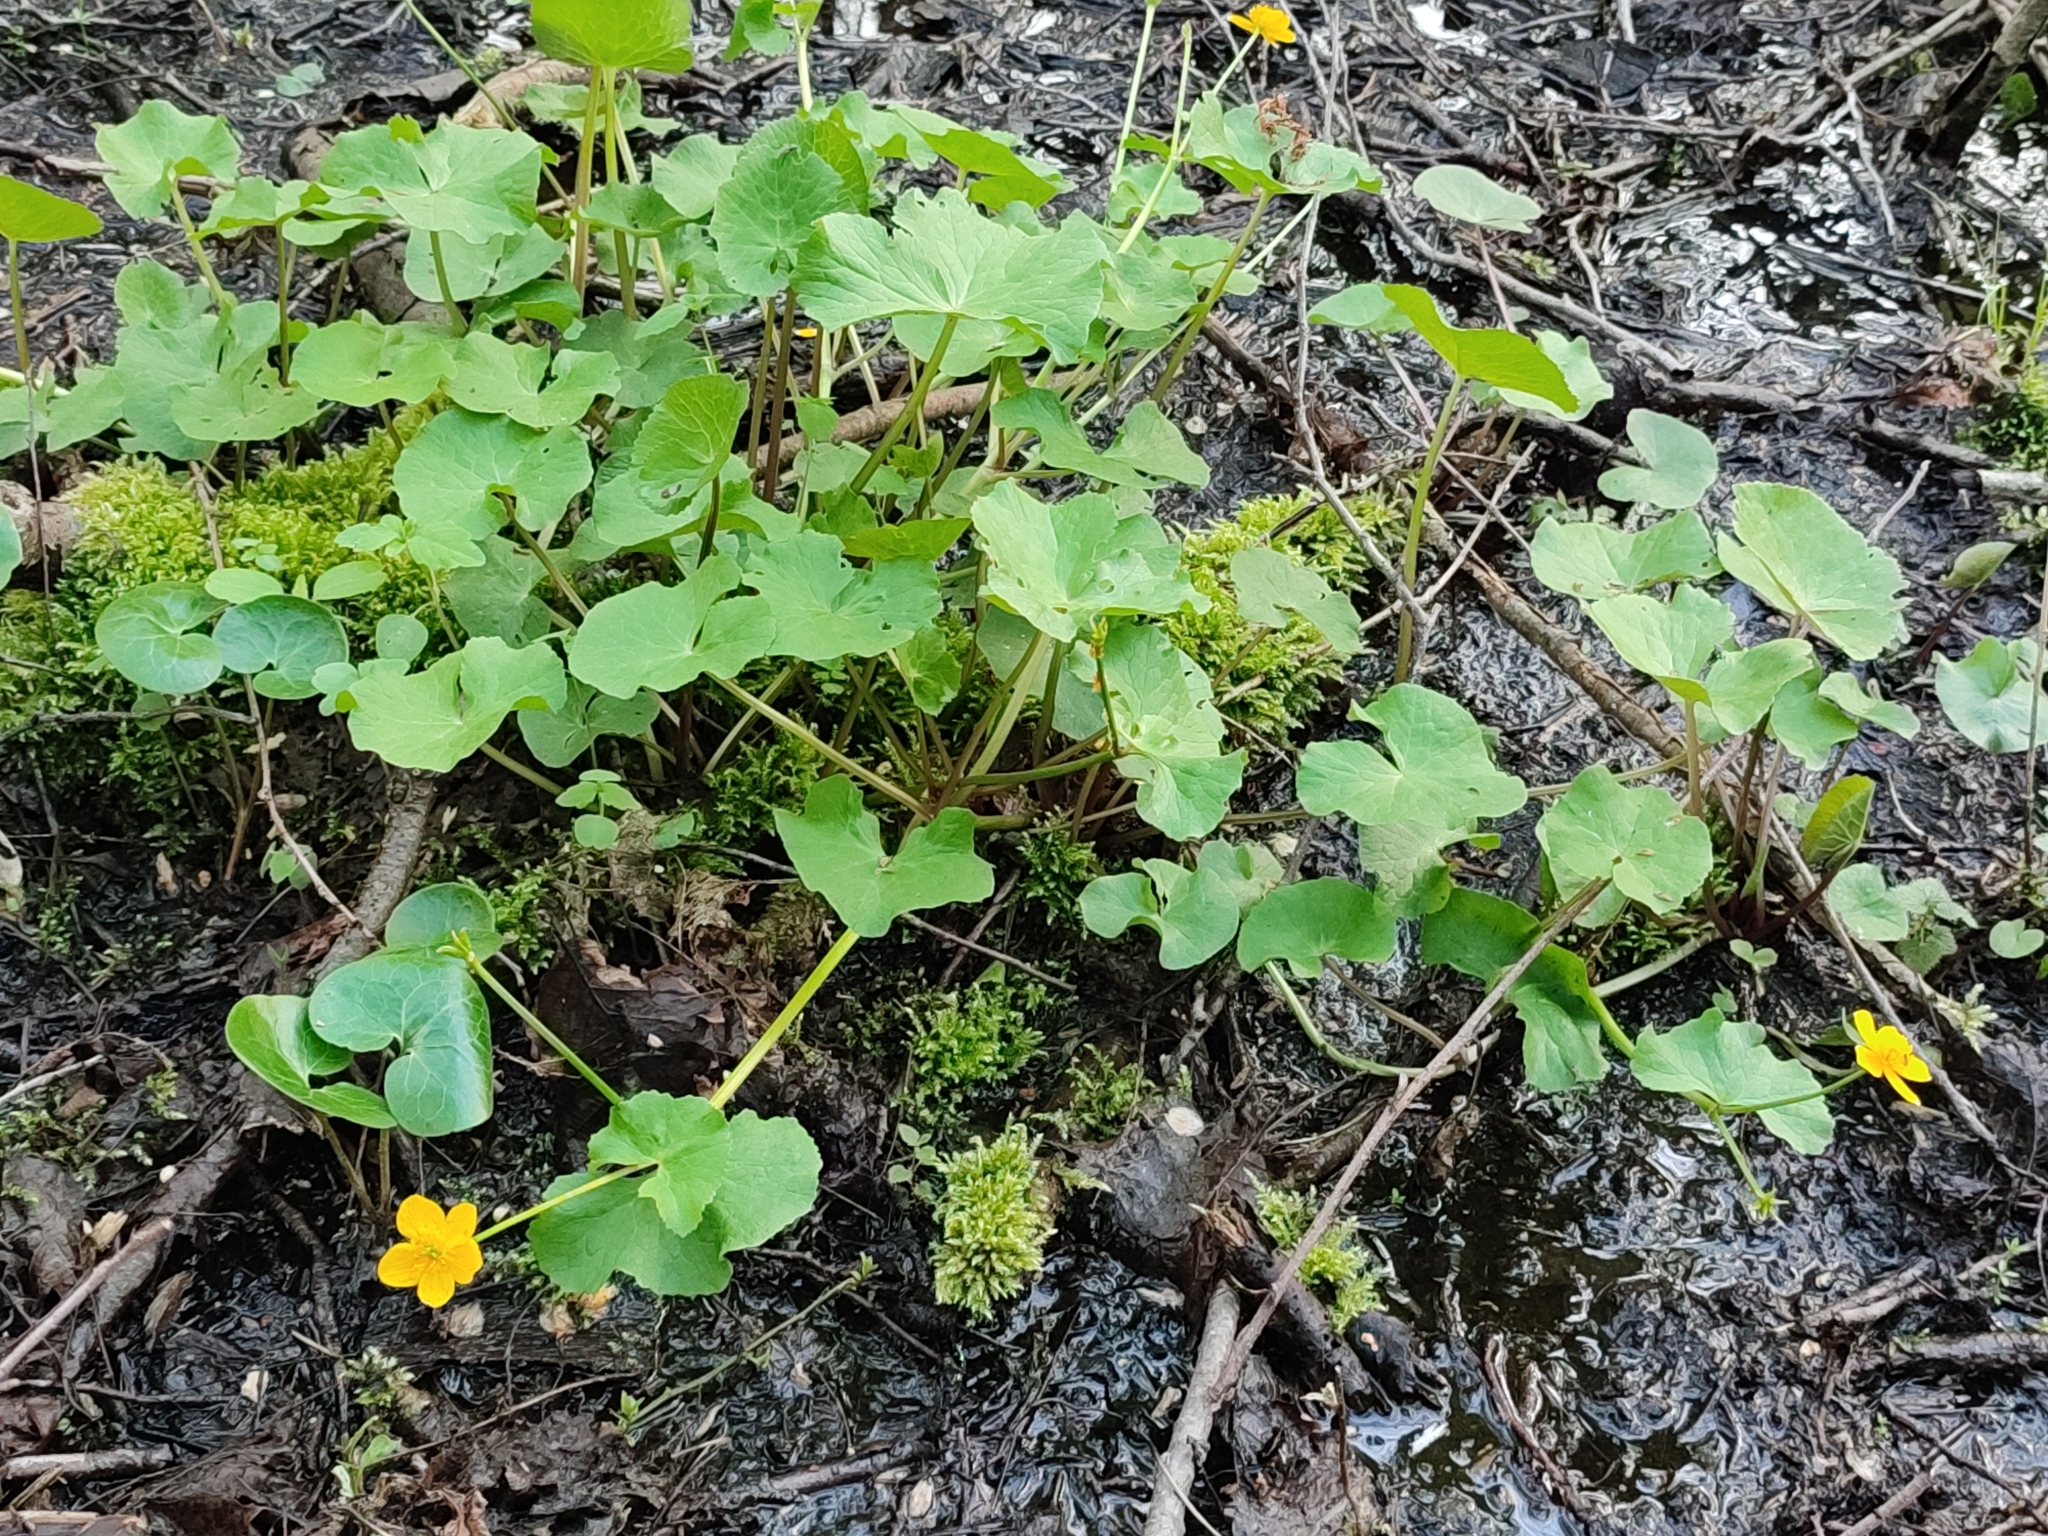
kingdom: Plantae
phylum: Tracheophyta
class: Magnoliopsida
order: Ranunculales
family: Ranunculaceae
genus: Caltha
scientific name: Caltha palustris
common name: Marsh marigold
